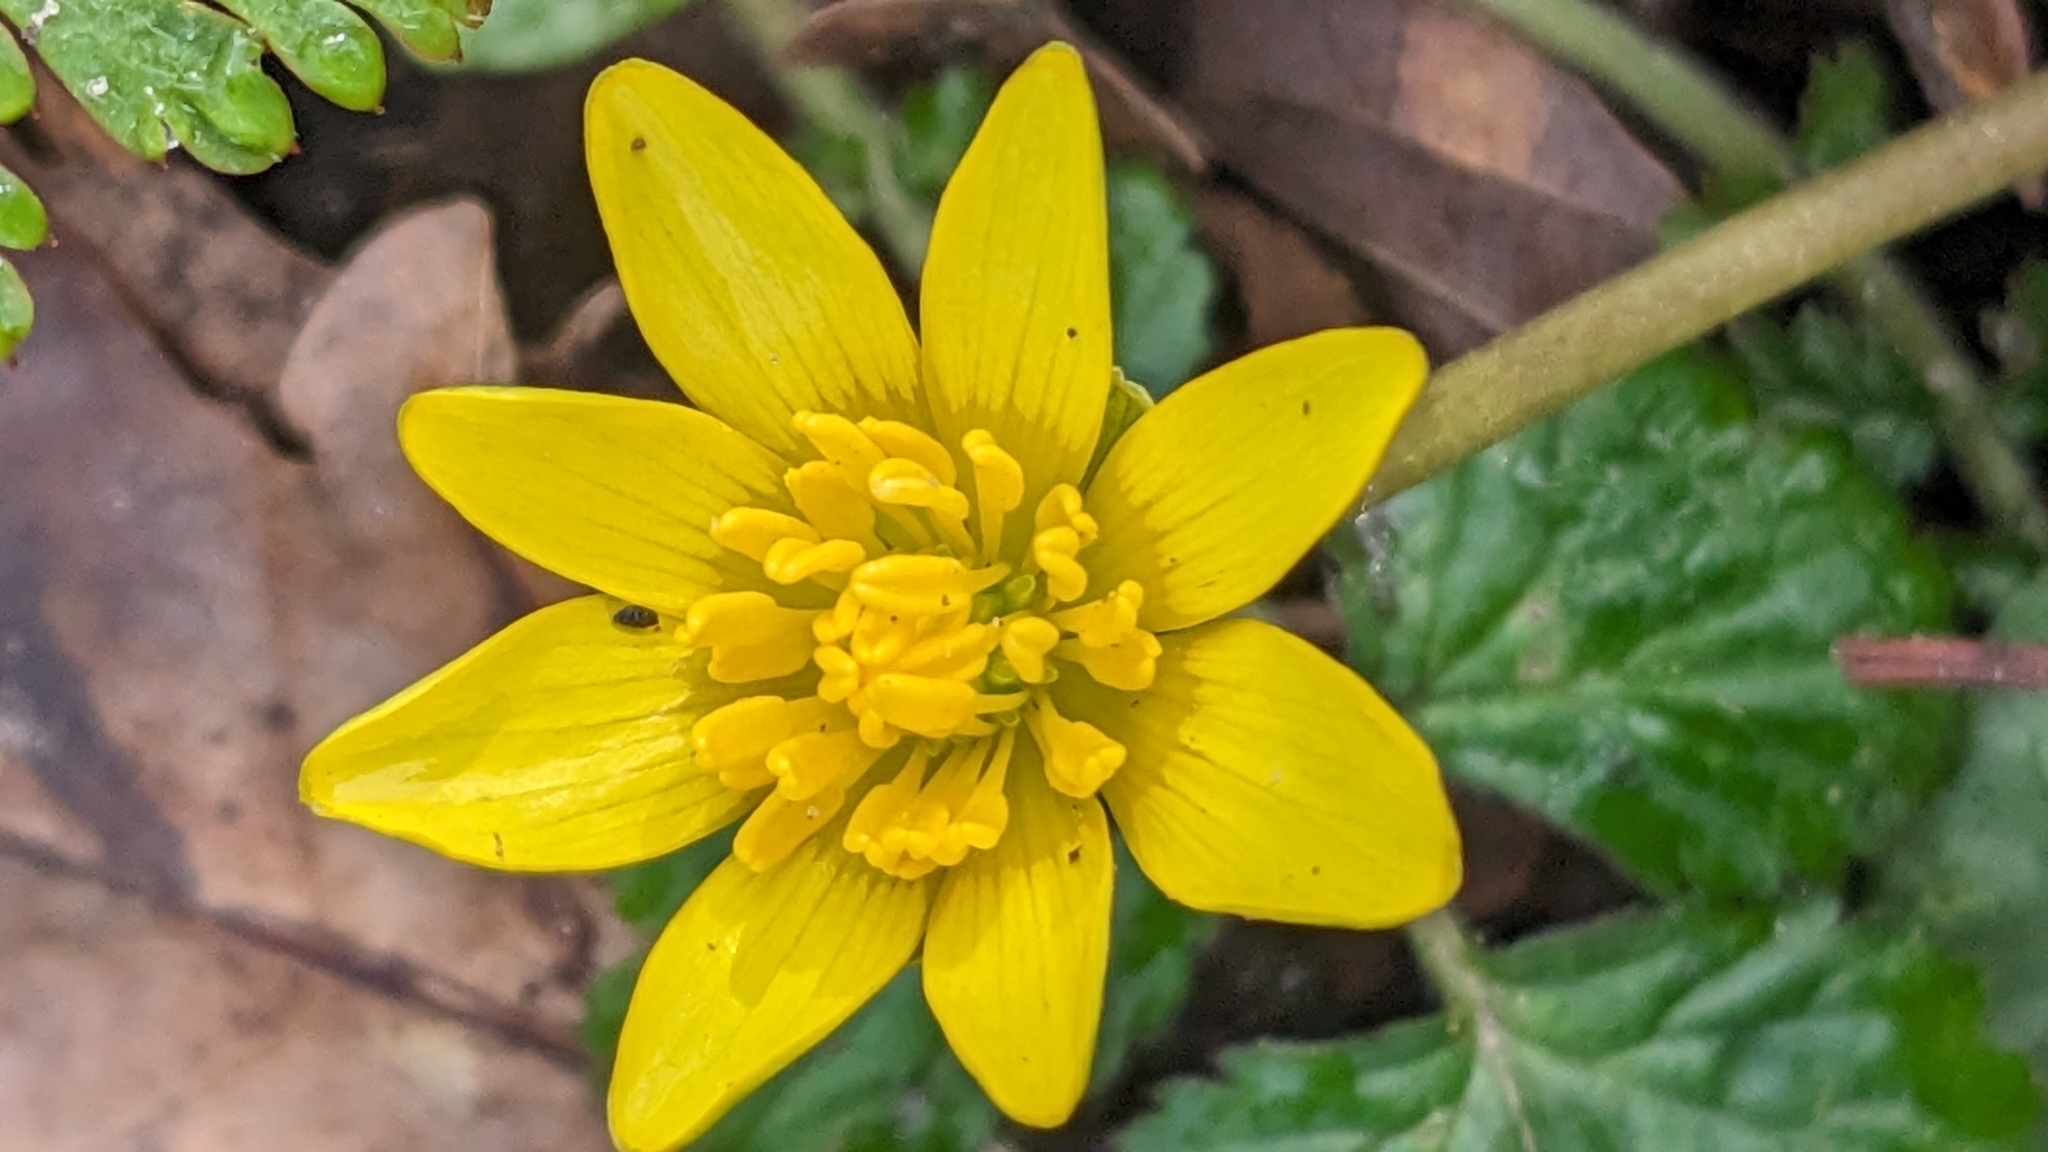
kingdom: Plantae
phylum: Tracheophyta
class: Magnoliopsida
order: Ranunculales
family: Ranunculaceae
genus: Ficaria
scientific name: Ficaria verna
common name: Lesser celandine
